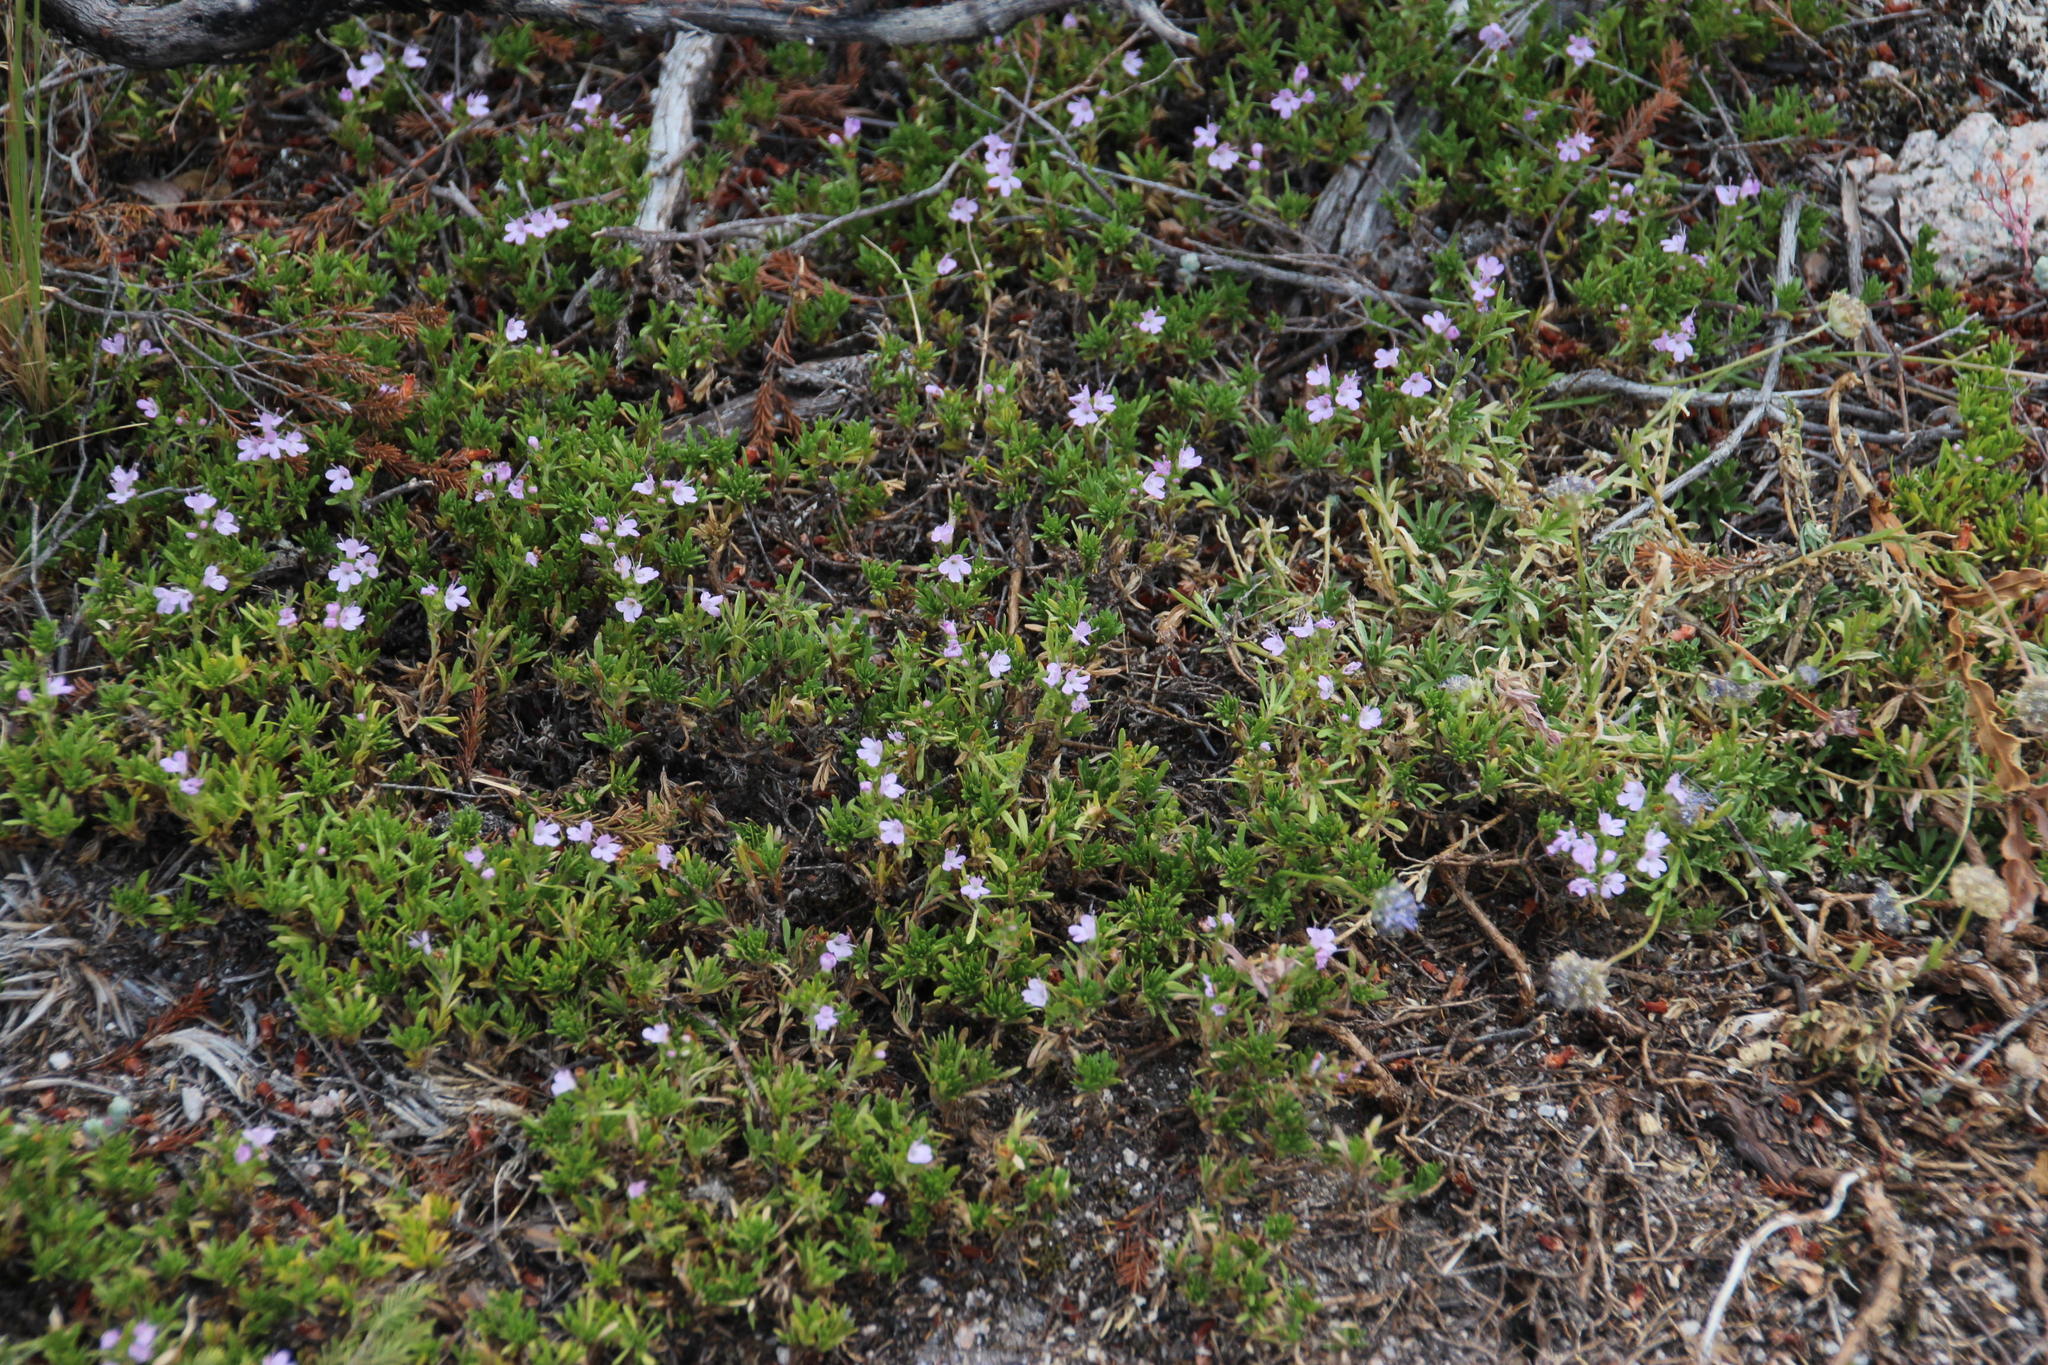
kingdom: Plantae
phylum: Tracheophyta
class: Magnoliopsida
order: Lamiales
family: Lamiaceae
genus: Thymus
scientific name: Thymus caespititius
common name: Azores thyme
